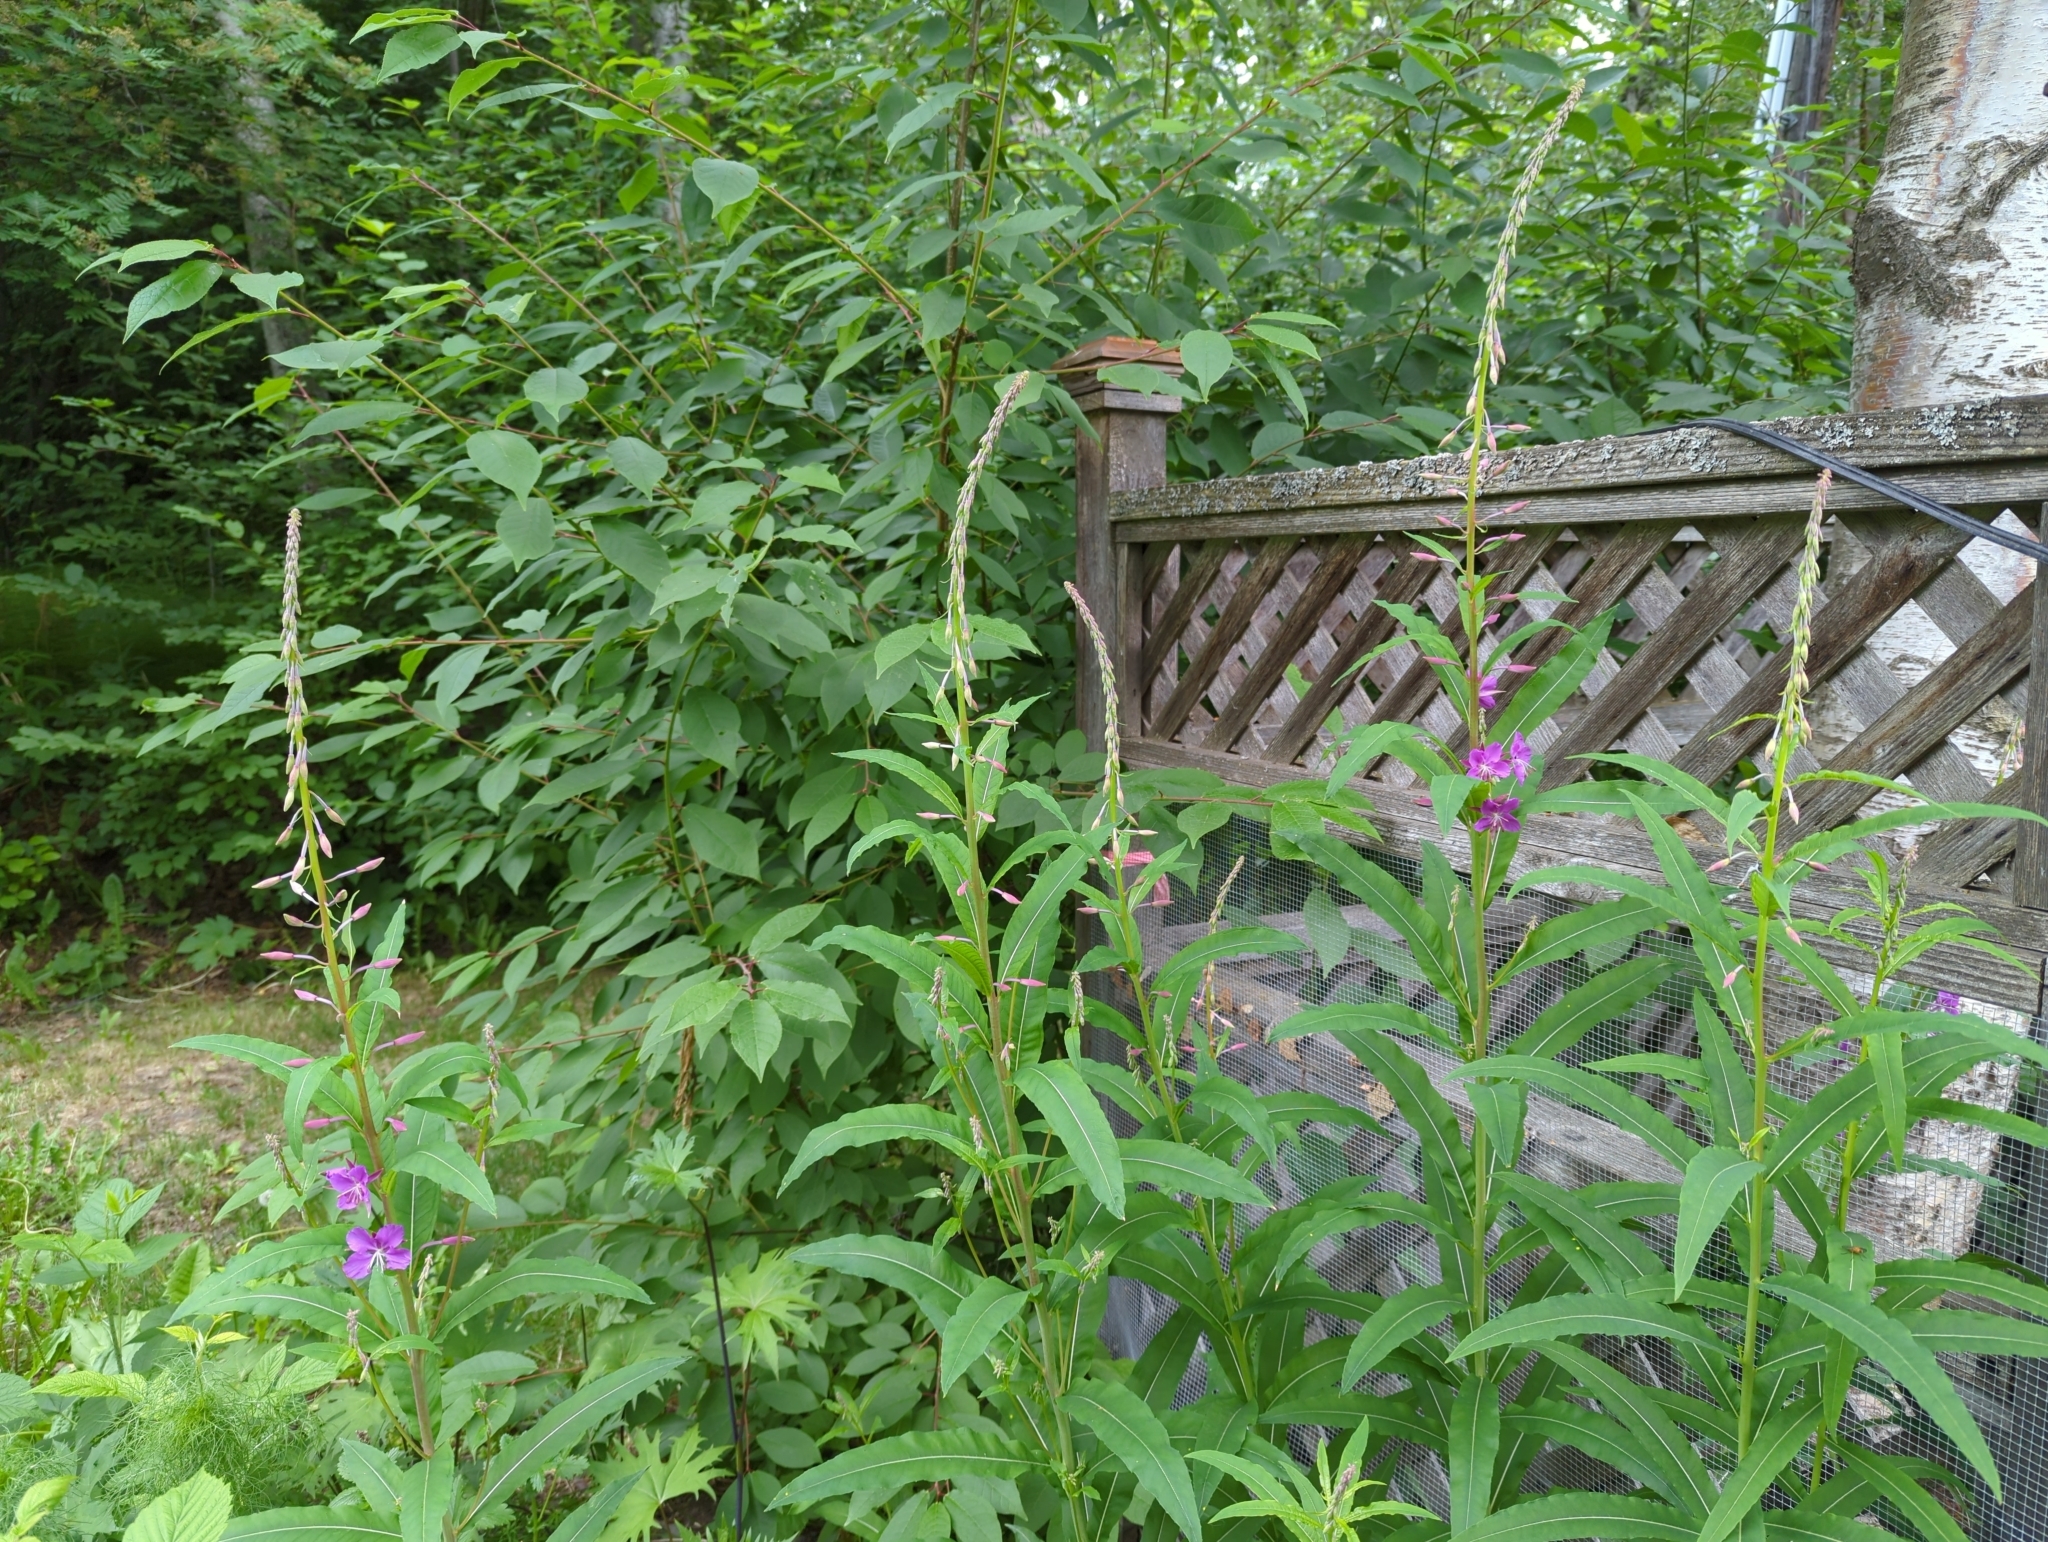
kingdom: Plantae
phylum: Tracheophyta
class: Magnoliopsida
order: Myrtales
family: Onagraceae
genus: Chamaenerion
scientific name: Chamaenerion angustifolium
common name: Fireweed
